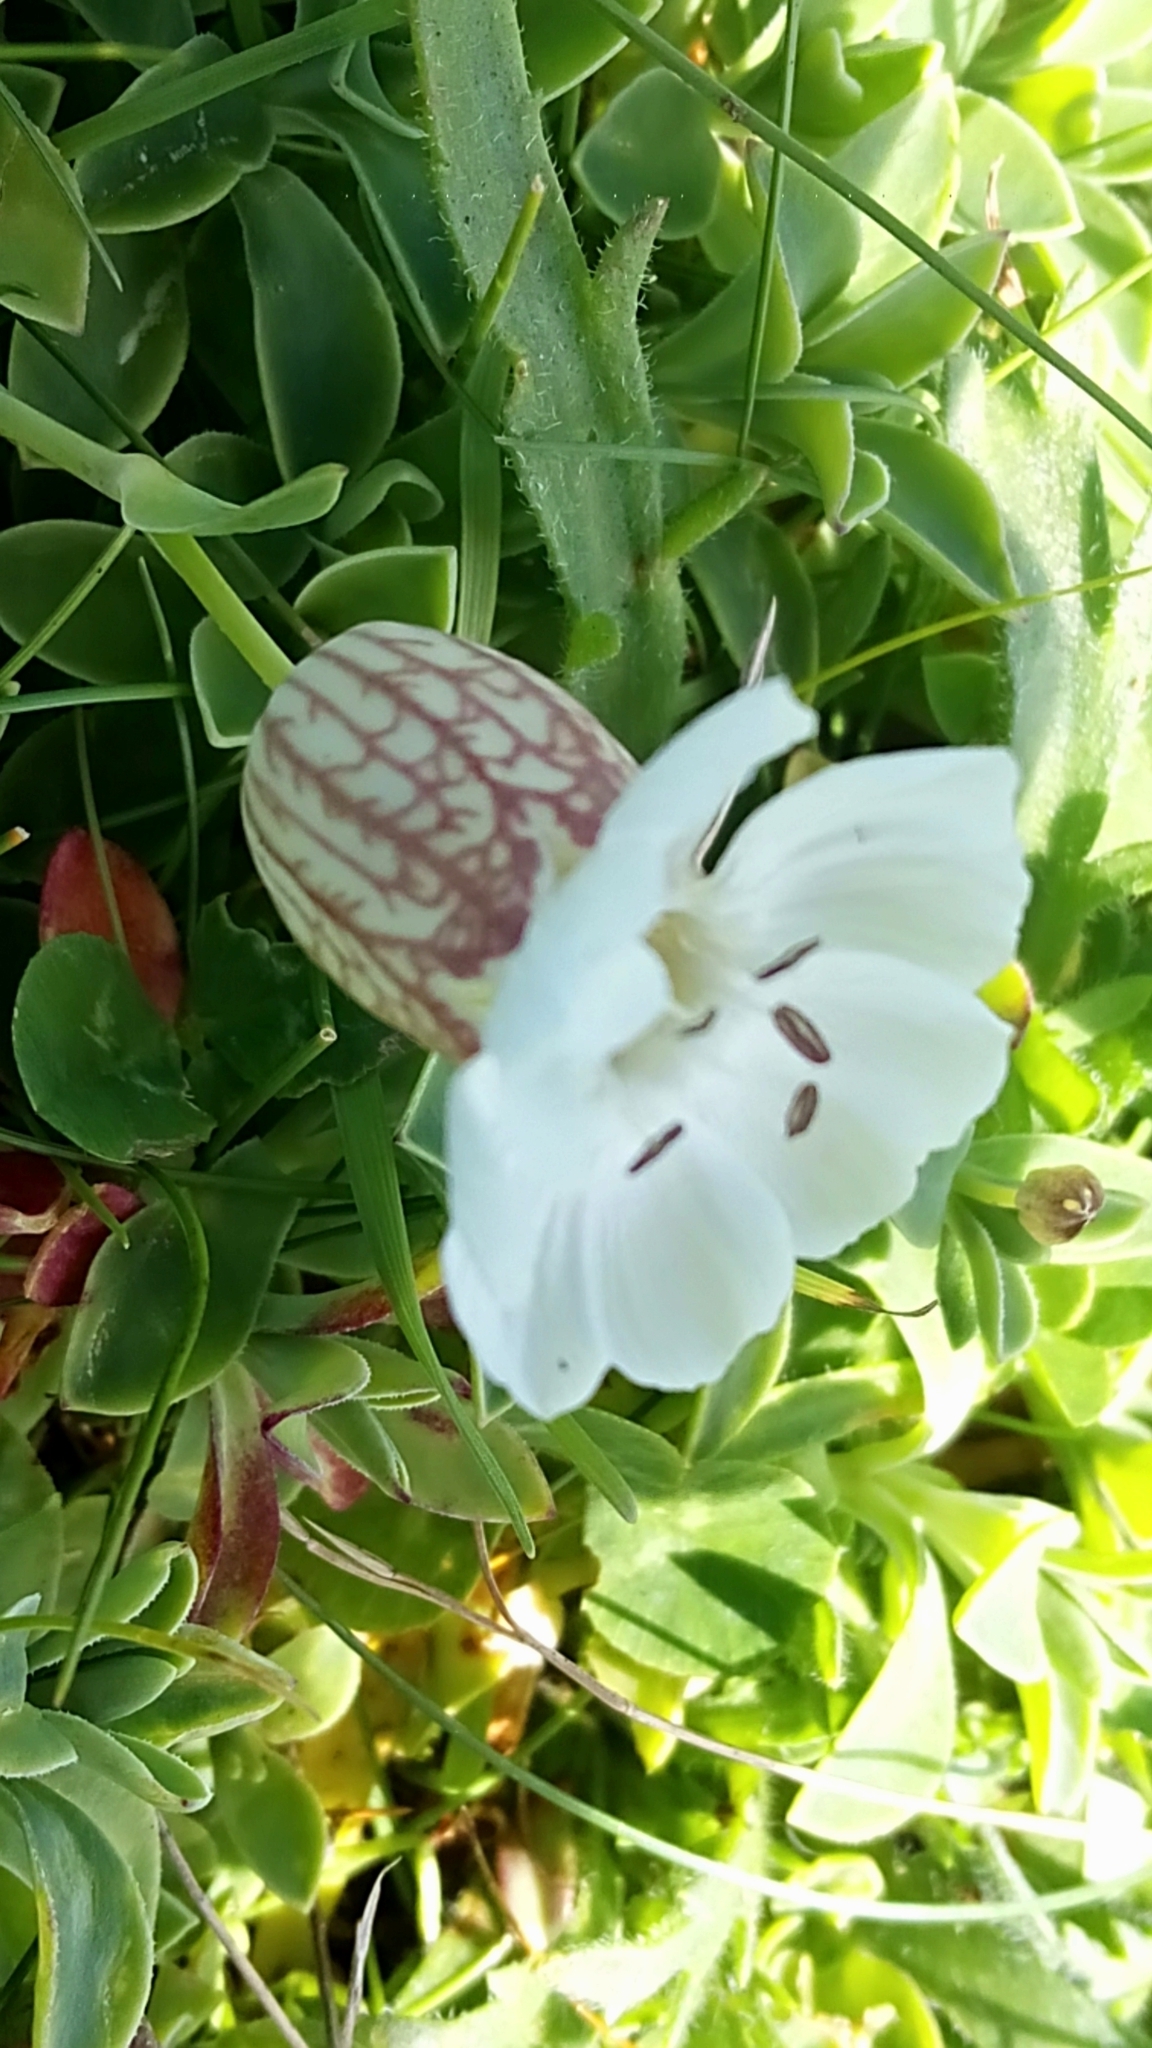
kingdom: Plantae
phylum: Tracheophyta
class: Magnoliopsida
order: Caryophyllales
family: Caryophyllaceae
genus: Silene
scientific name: Silene uniflora
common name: Sea campion
